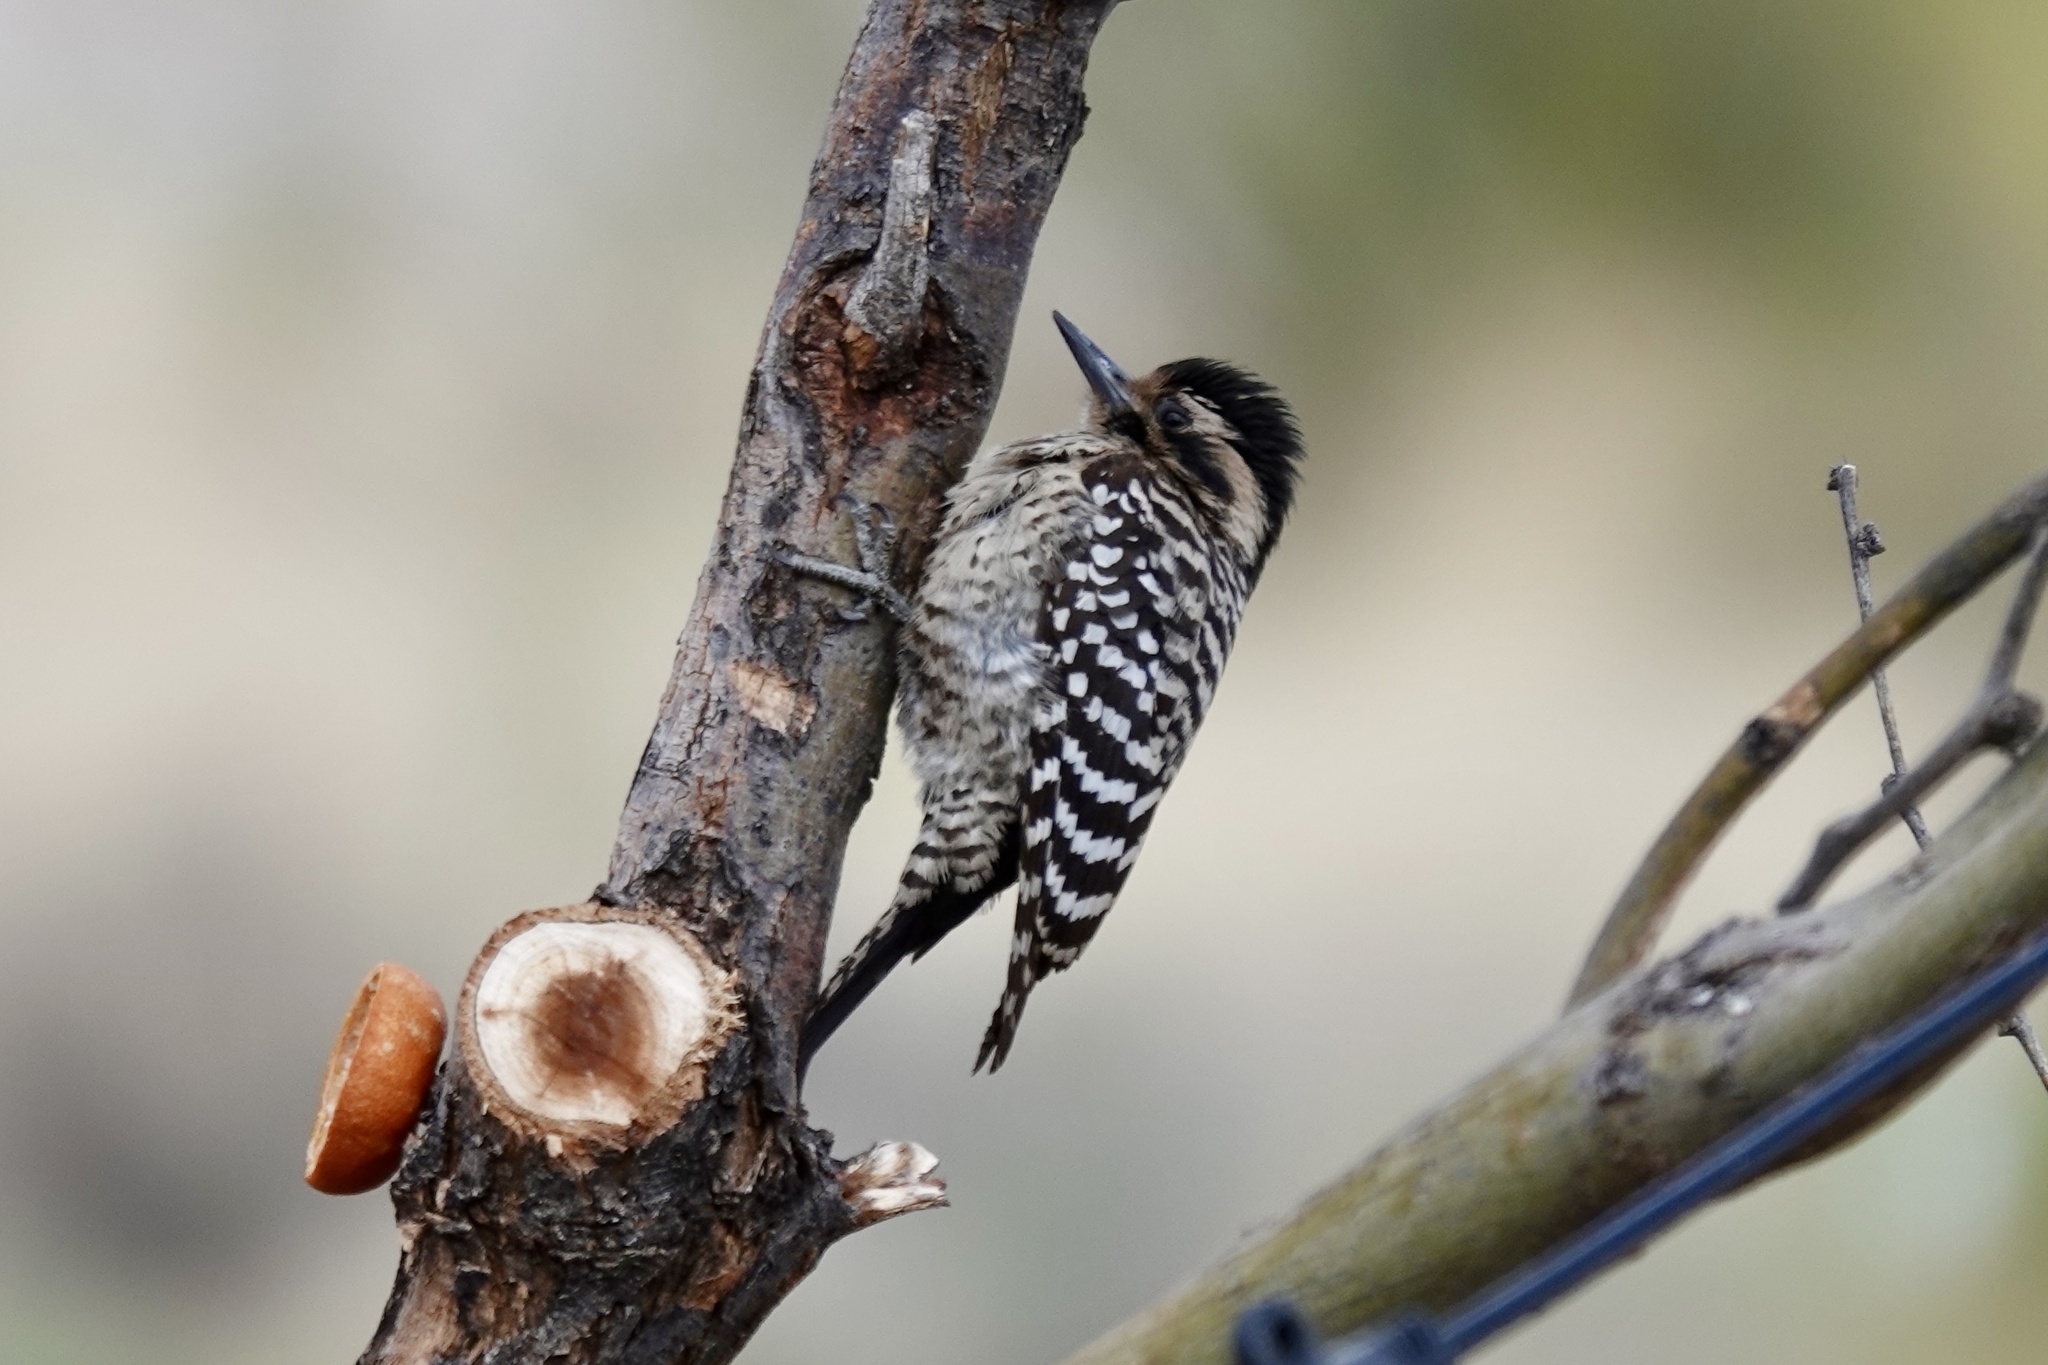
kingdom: Animalia
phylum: Chordata
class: Aves
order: Piciformes
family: Picidae
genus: Dryobates
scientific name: Dryobates scalaris
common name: Ladder-backed woodpecker
